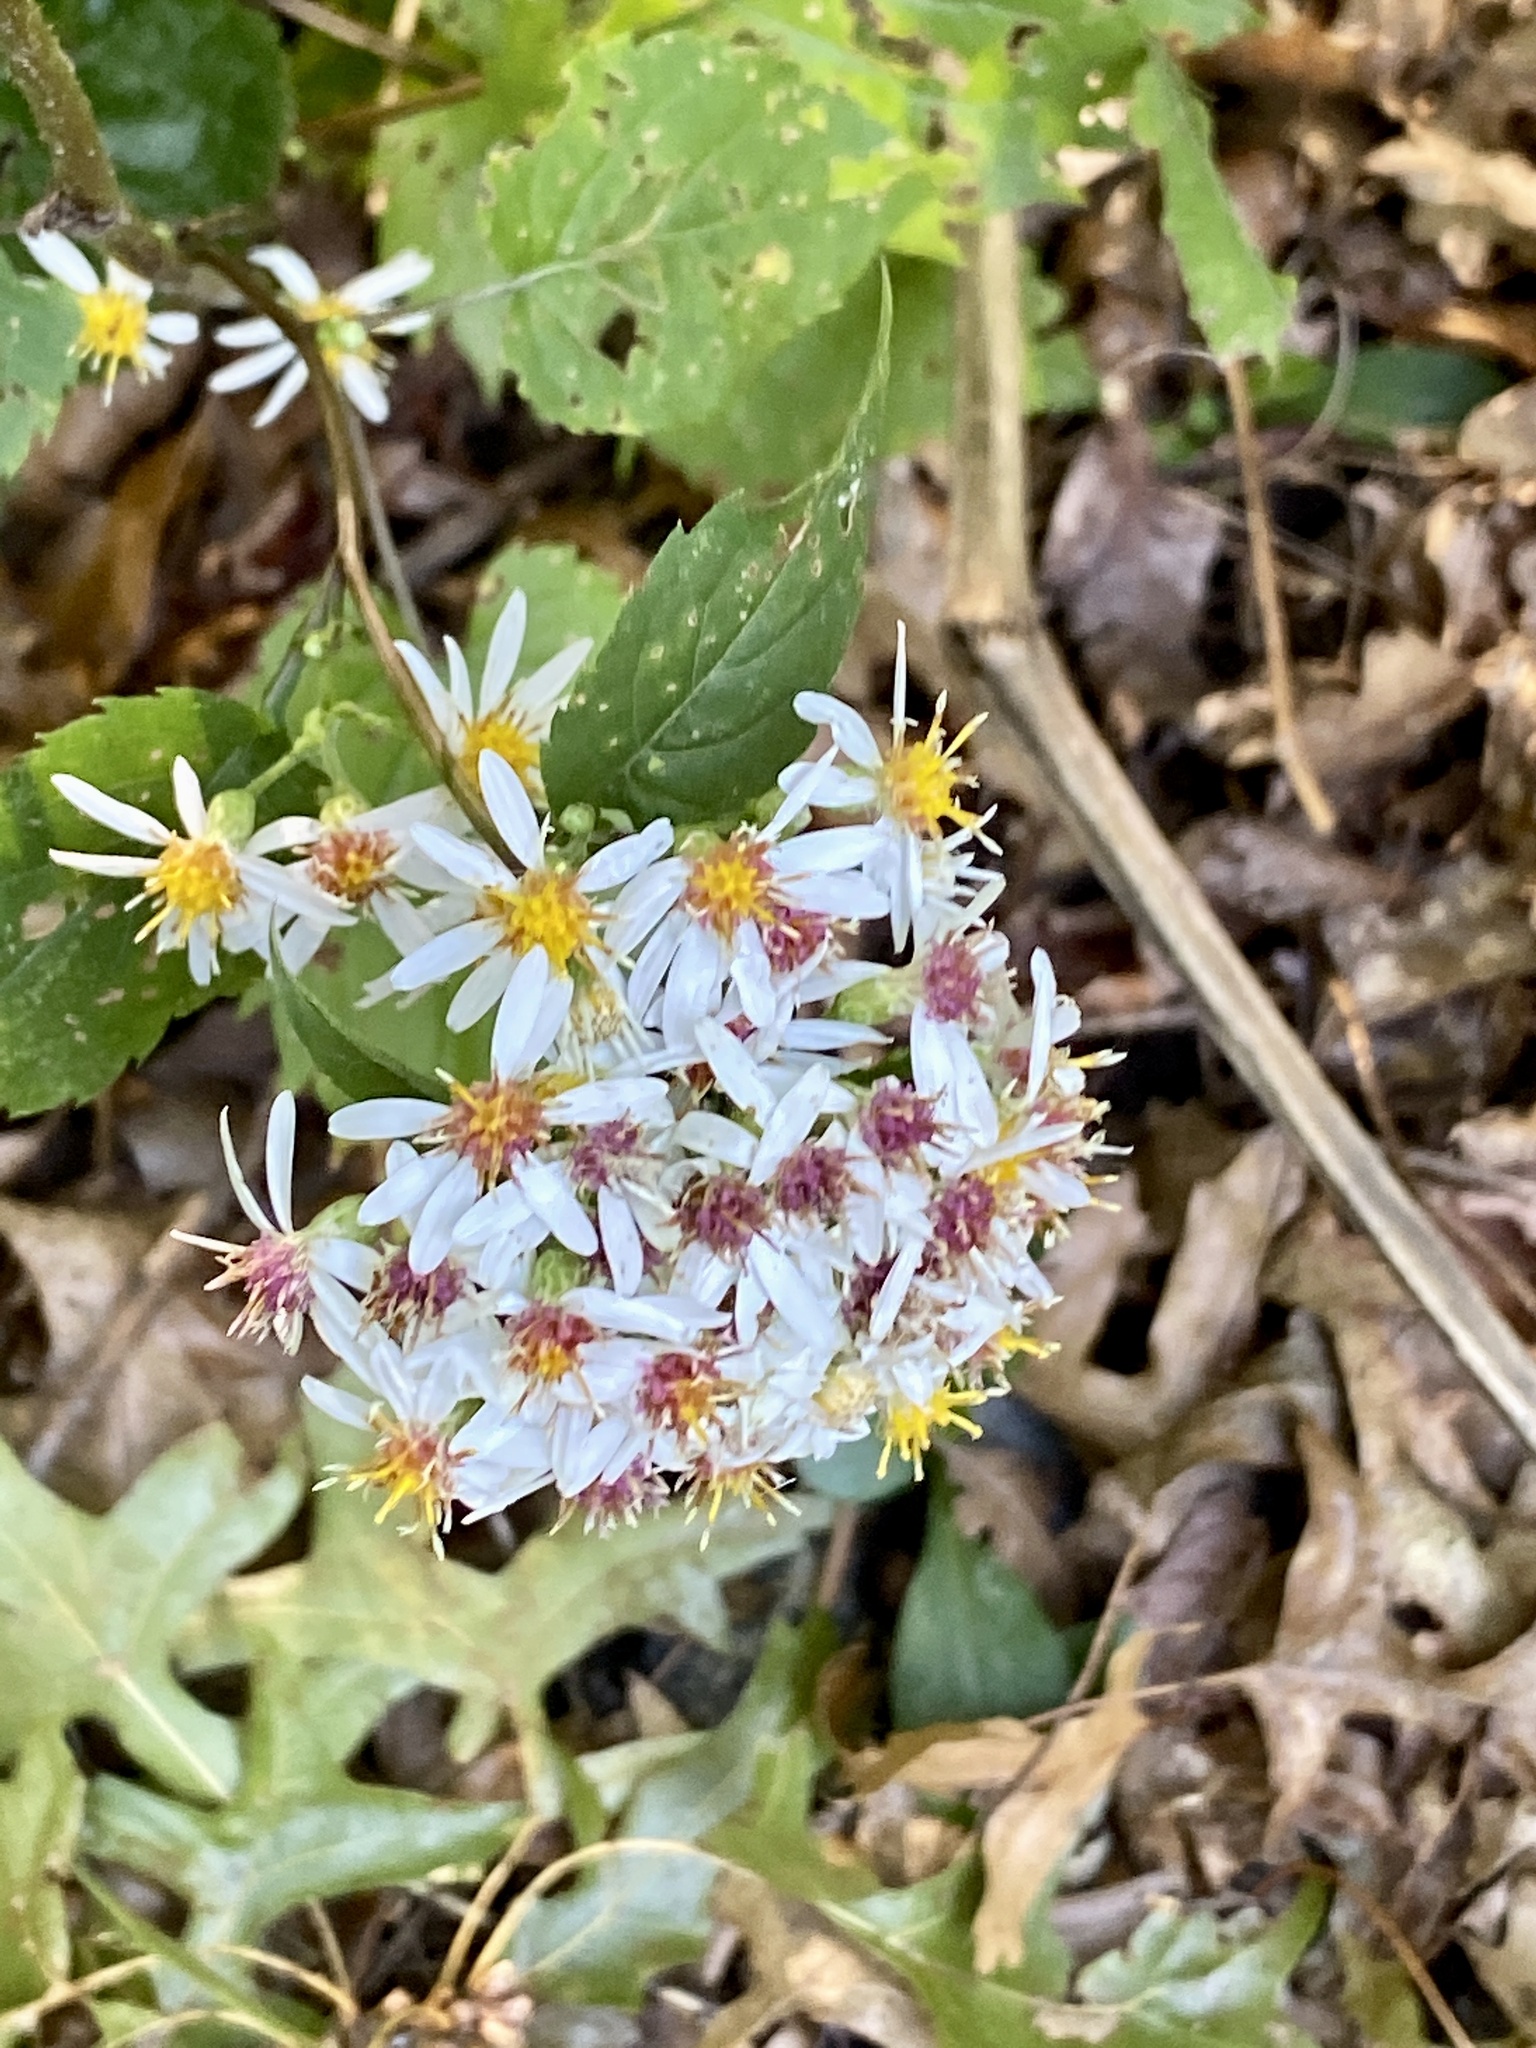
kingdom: Plantae
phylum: Tracheophyta
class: Magnoliopsida
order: Asterales
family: Asteraceae
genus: Eurybia
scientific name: Eurybia divaricata
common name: White wood aster
